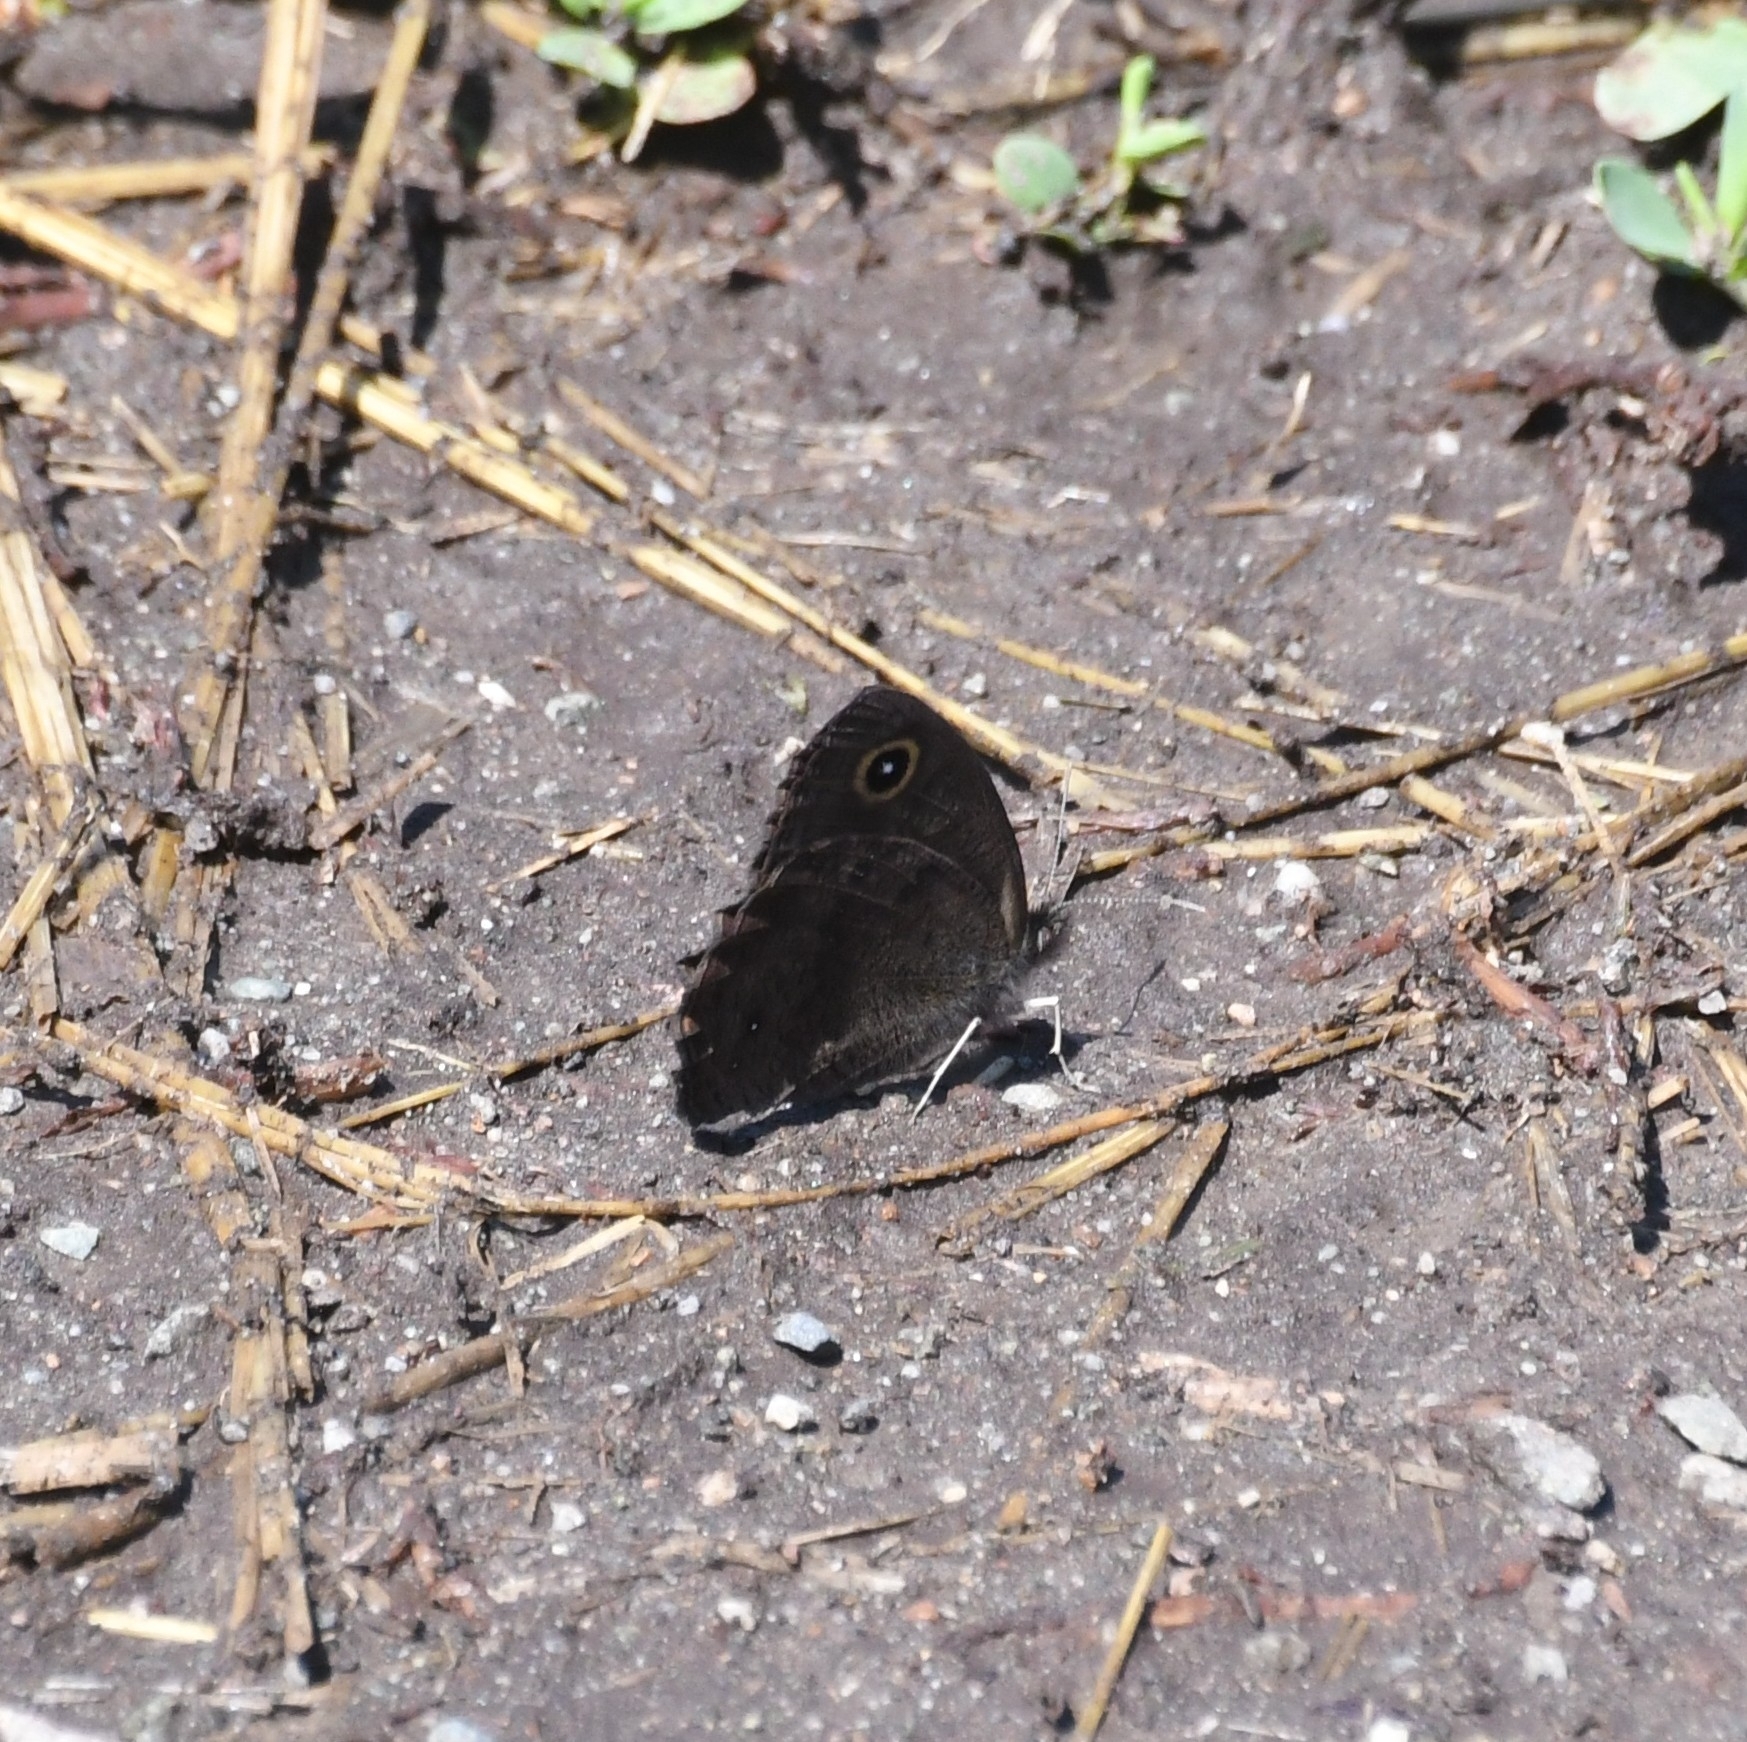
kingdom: Animalia
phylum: Arthropoda
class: Insecta
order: Lepidoptera
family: Nymphalidae
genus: Cercyonis
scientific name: Cercyonis oetus
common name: Small wood-nymph
